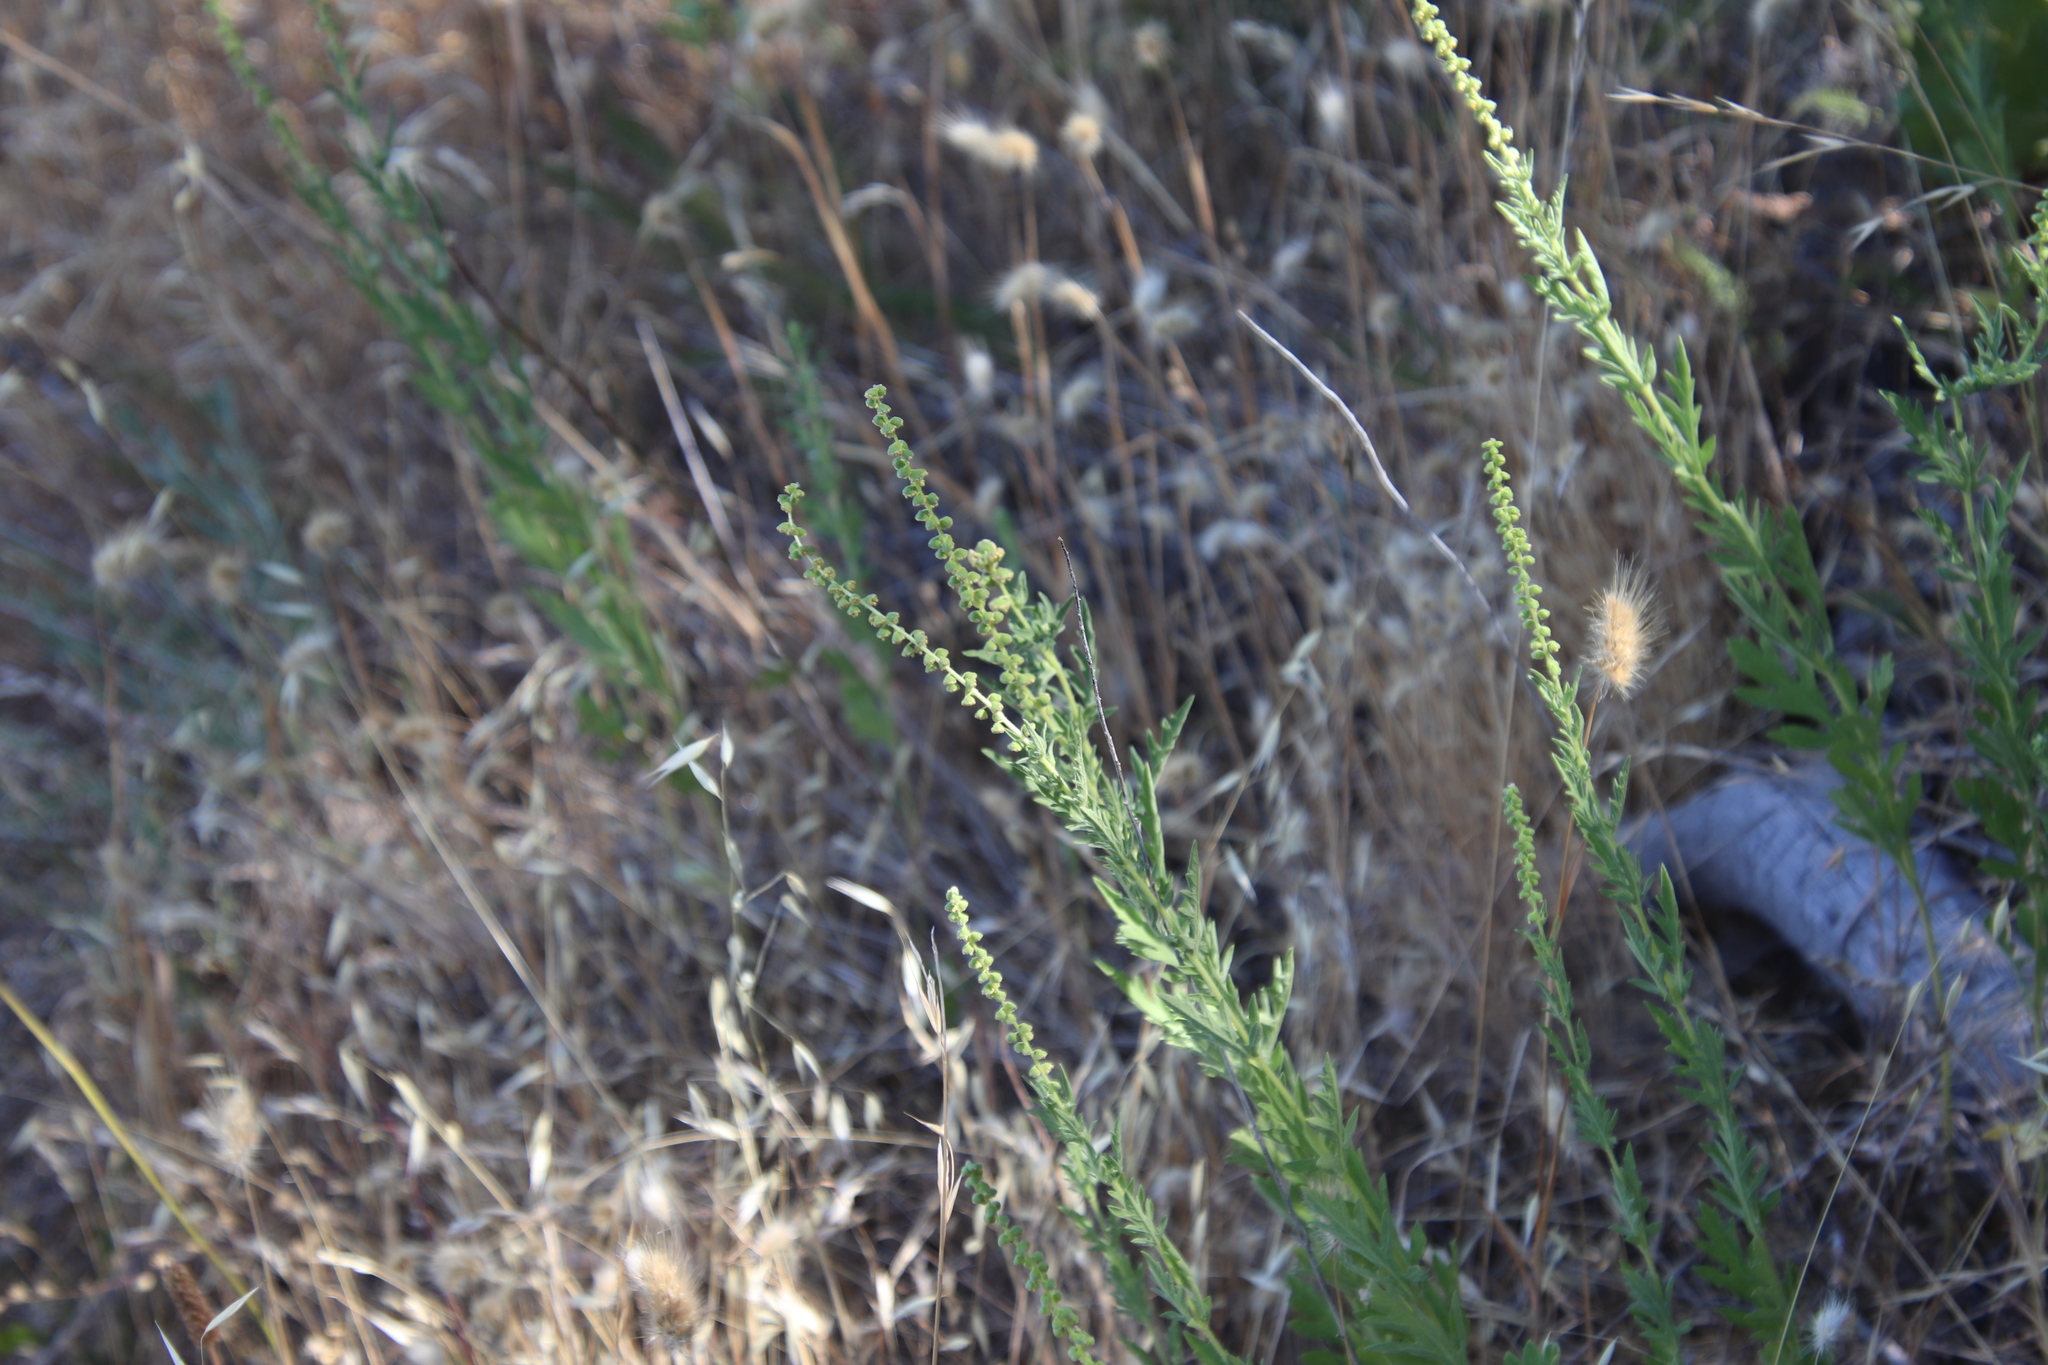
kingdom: Plantae
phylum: Tracheophyta
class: Magnoliopsida
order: Asterales
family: Asteraceae
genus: Ambrosia
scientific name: Ambrosia psilostachya
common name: Perennial ragweed
